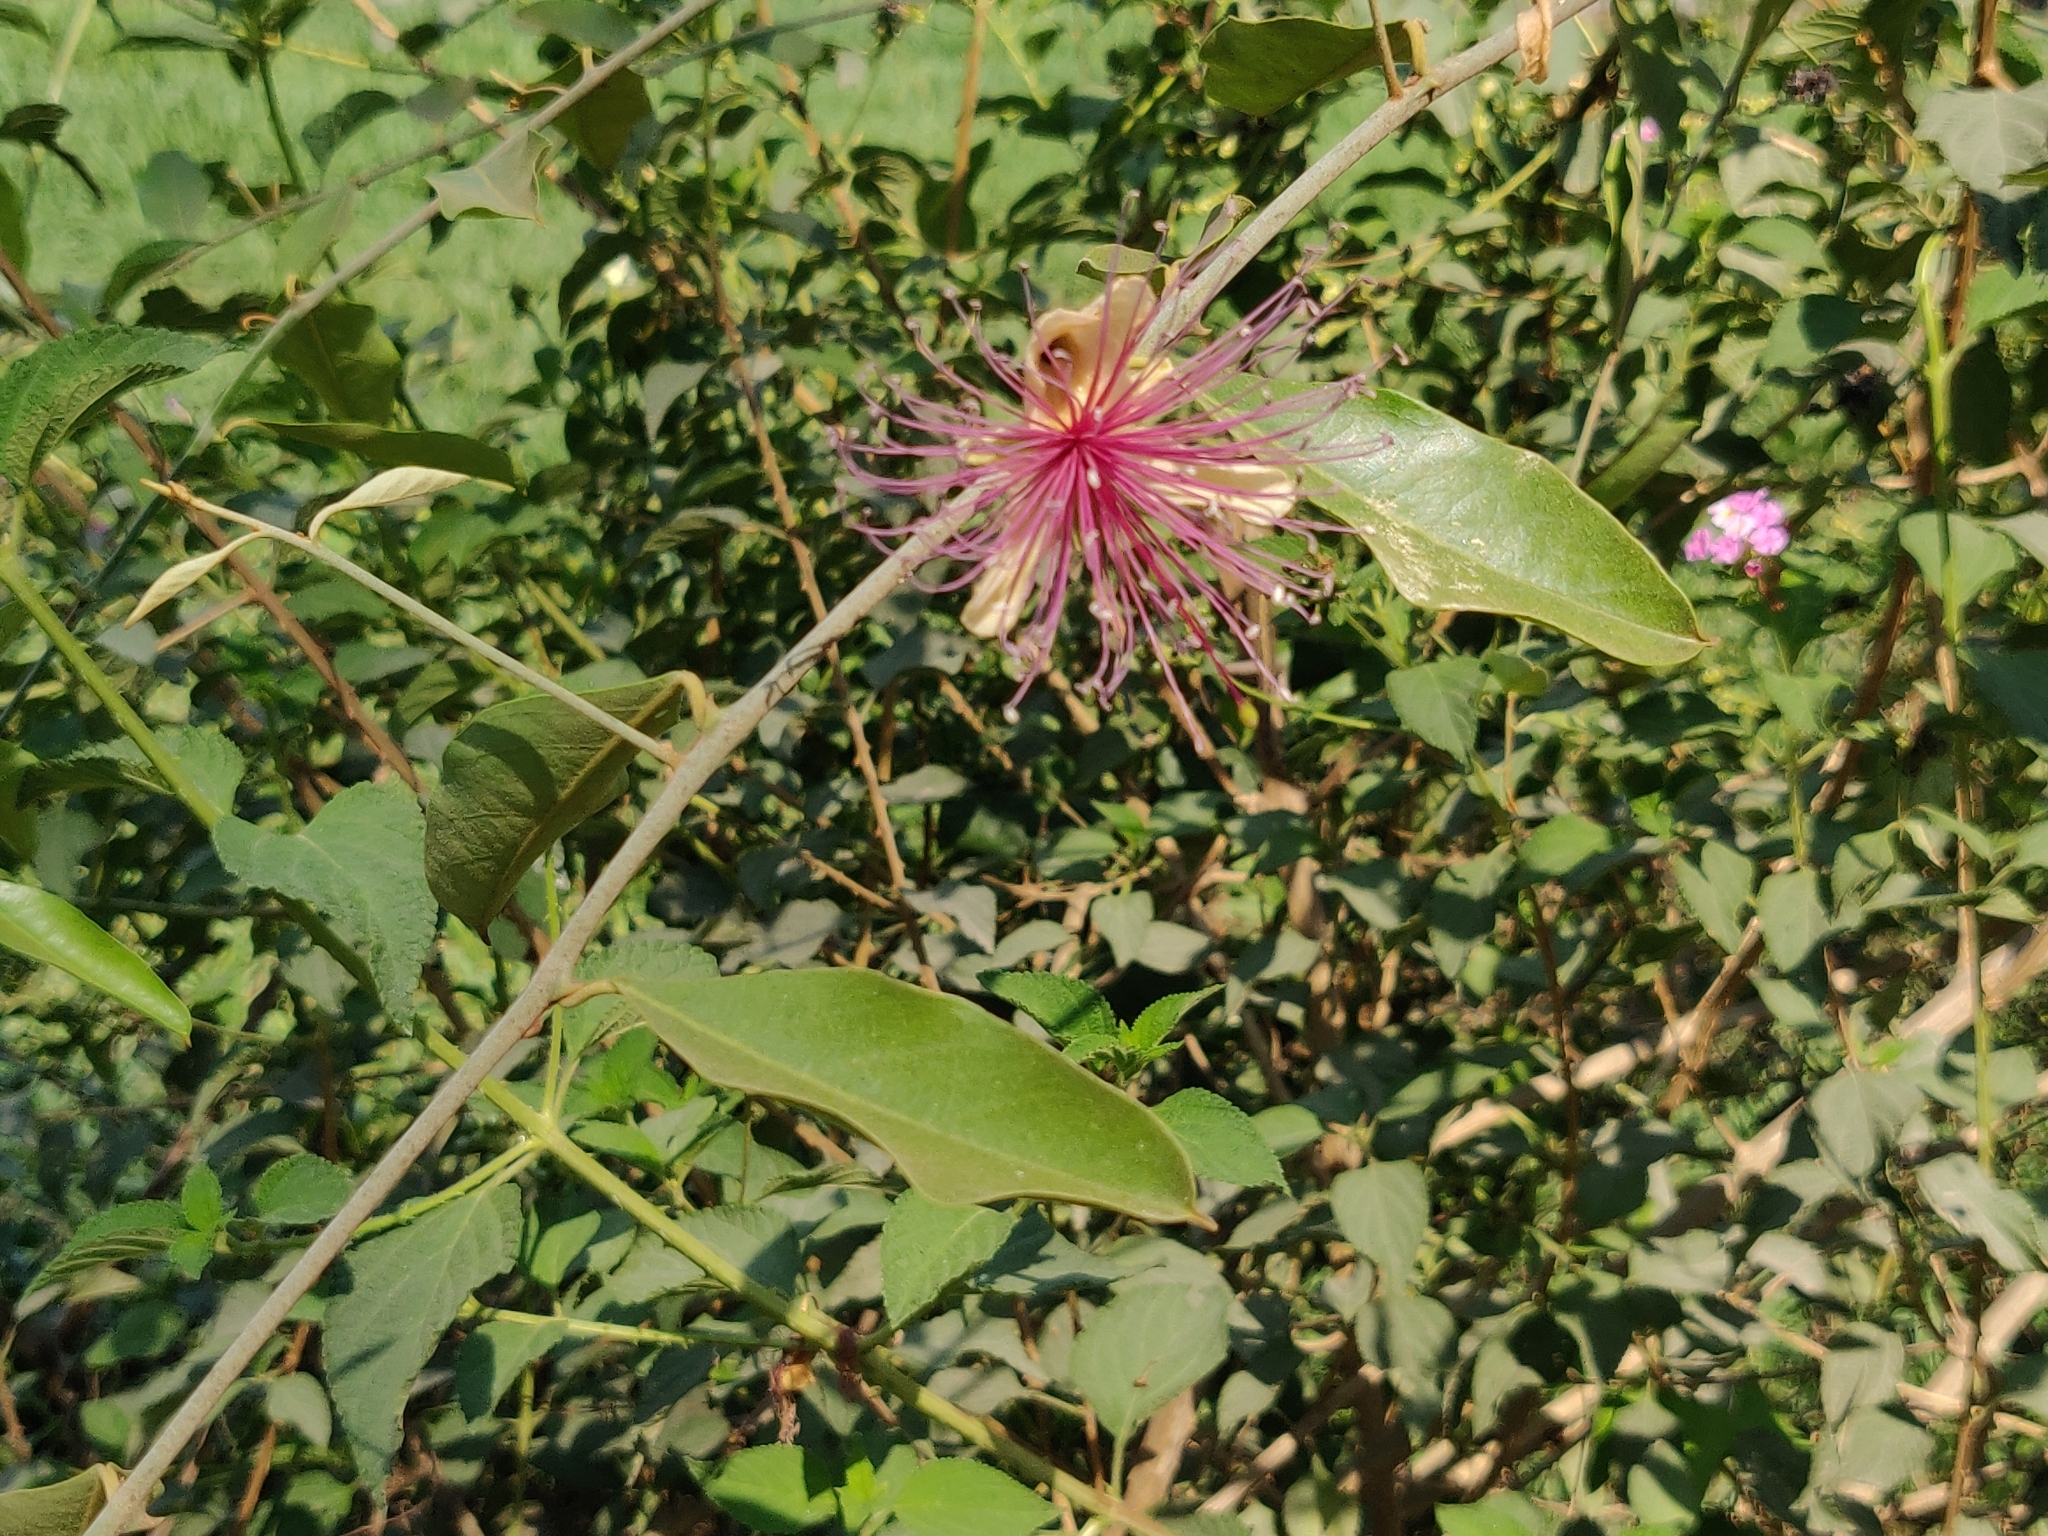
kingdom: Plantae
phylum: Tracheophyta
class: Magnoliopsida
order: Brassicales
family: Capparaceae
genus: Capparis
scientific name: Capparis zeylanica
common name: Ceylon caper
